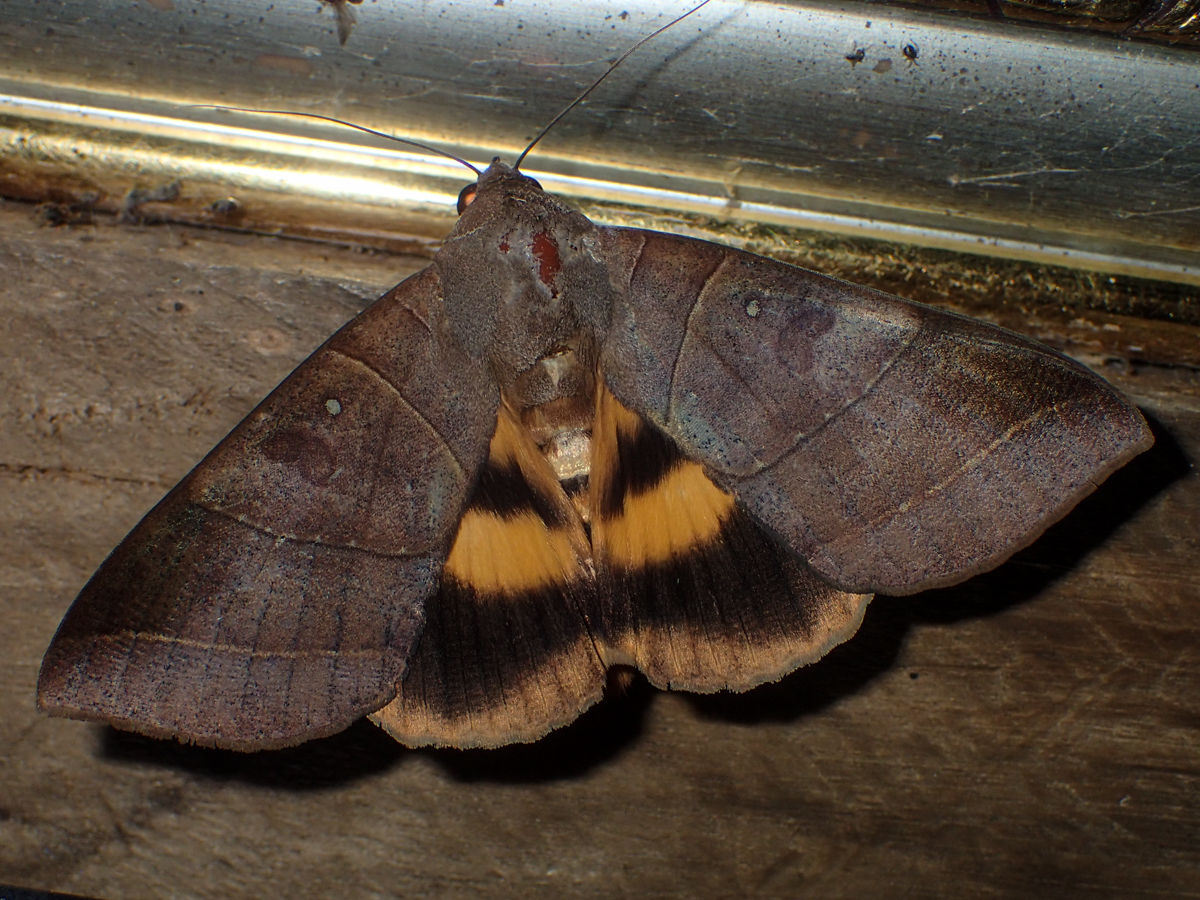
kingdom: Animalia
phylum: Arthropoda
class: Insecta
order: Lepidoptera
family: Erebidae
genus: Thyas
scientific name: Thyas coronata
